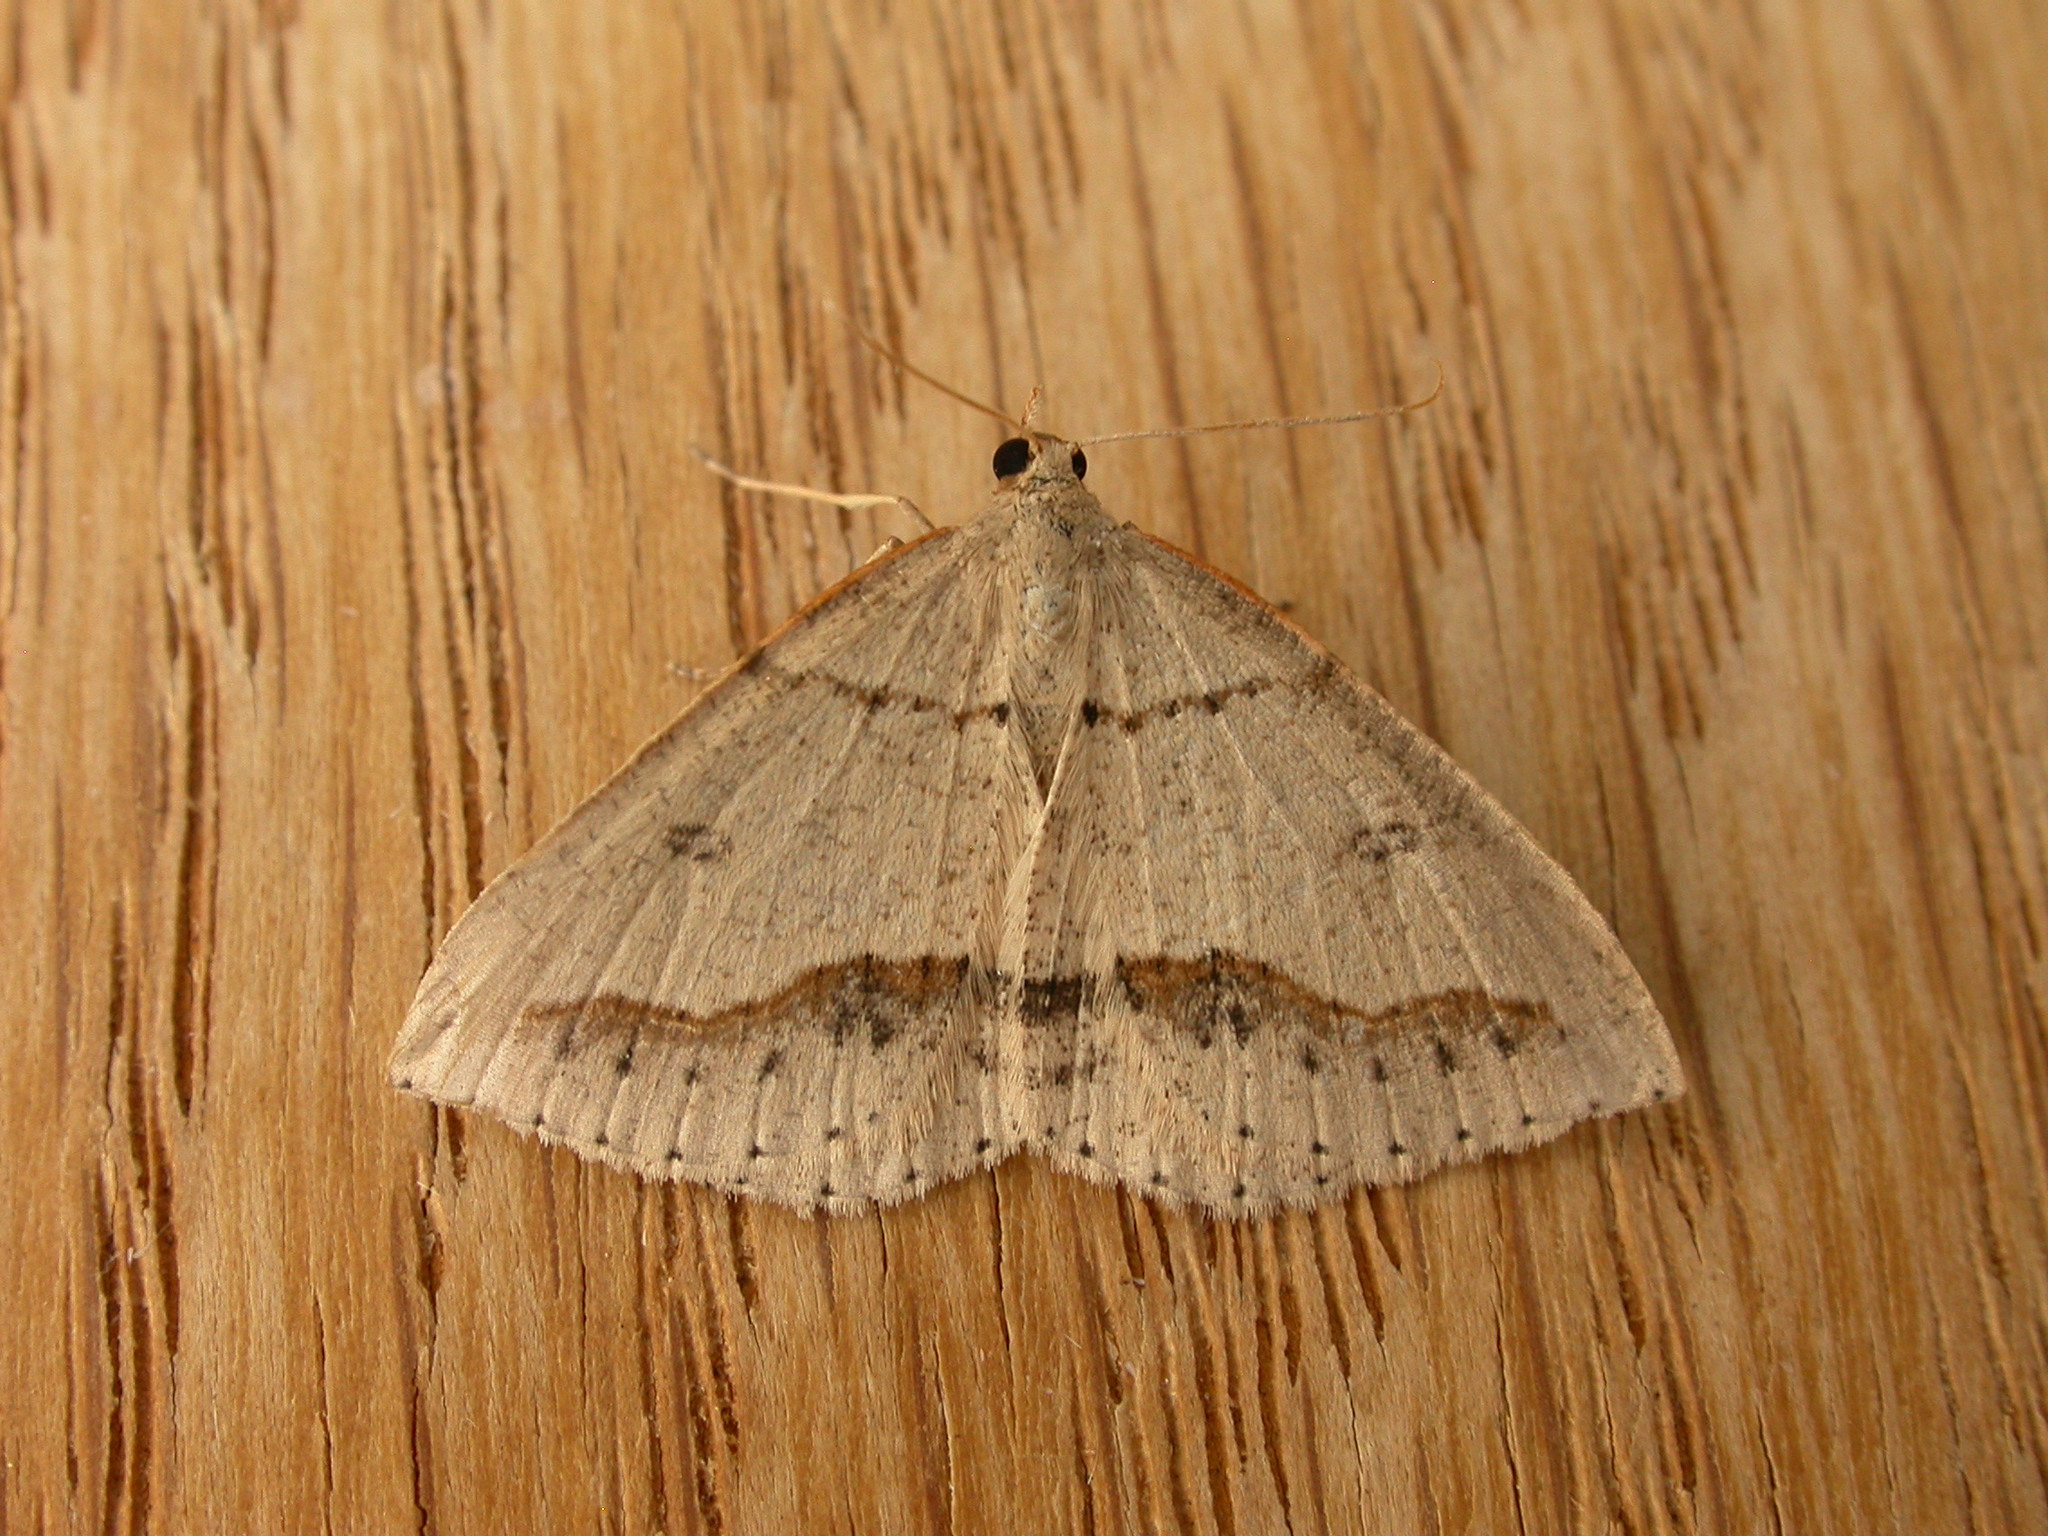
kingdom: Animalia
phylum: Arthropoda
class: Insecta
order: Lepidoptera
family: Geometridae
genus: Taxeotis
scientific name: Taxeotis stereospila
